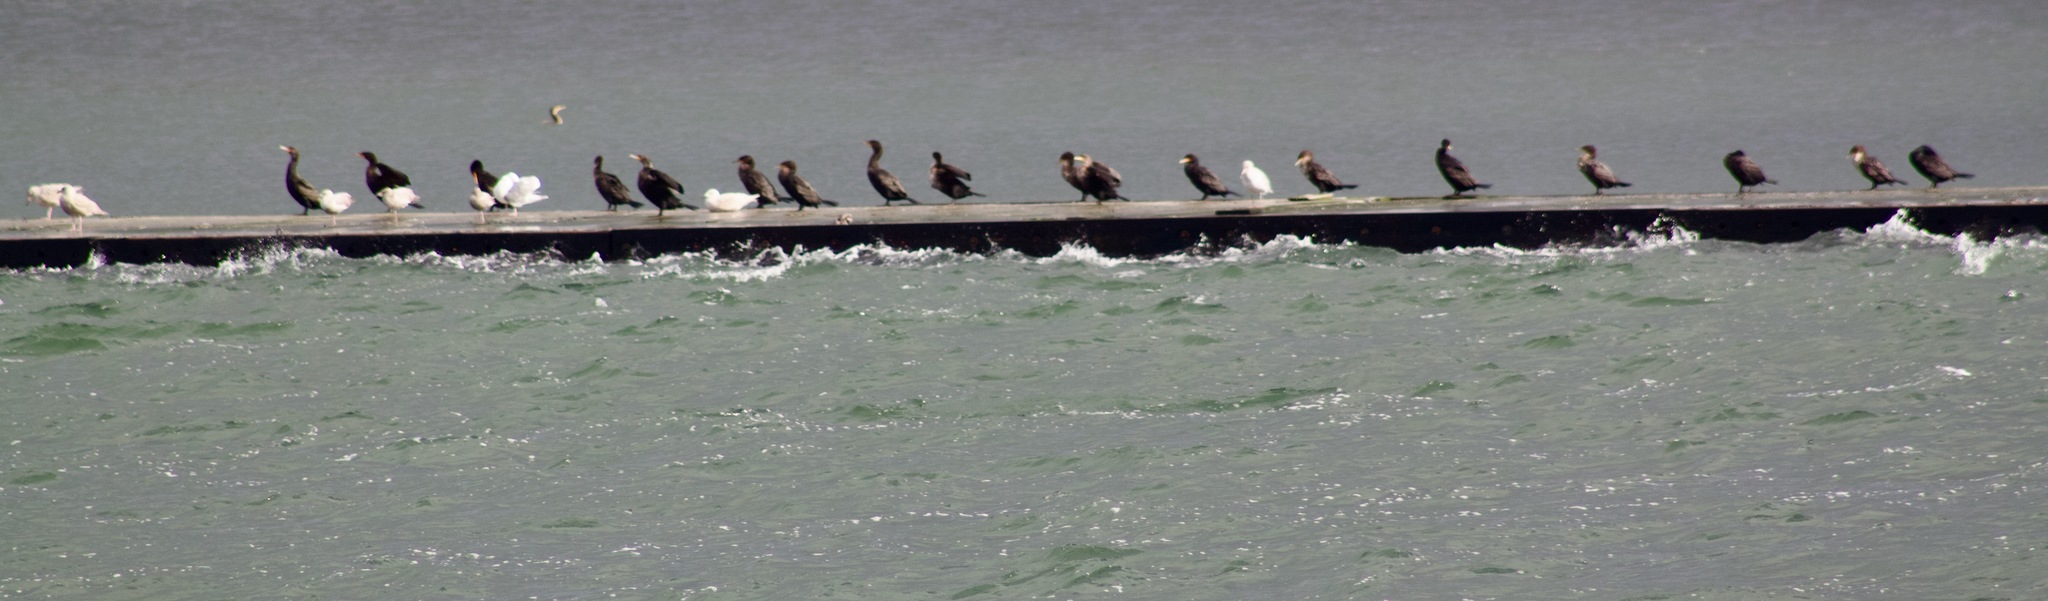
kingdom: Animalia
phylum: Chordata
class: Aves
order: Suliformes
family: Phalacrocoracidae
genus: Phalacrocorax
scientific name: Phalacrocorax auritus
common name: Double-crested cormorant
